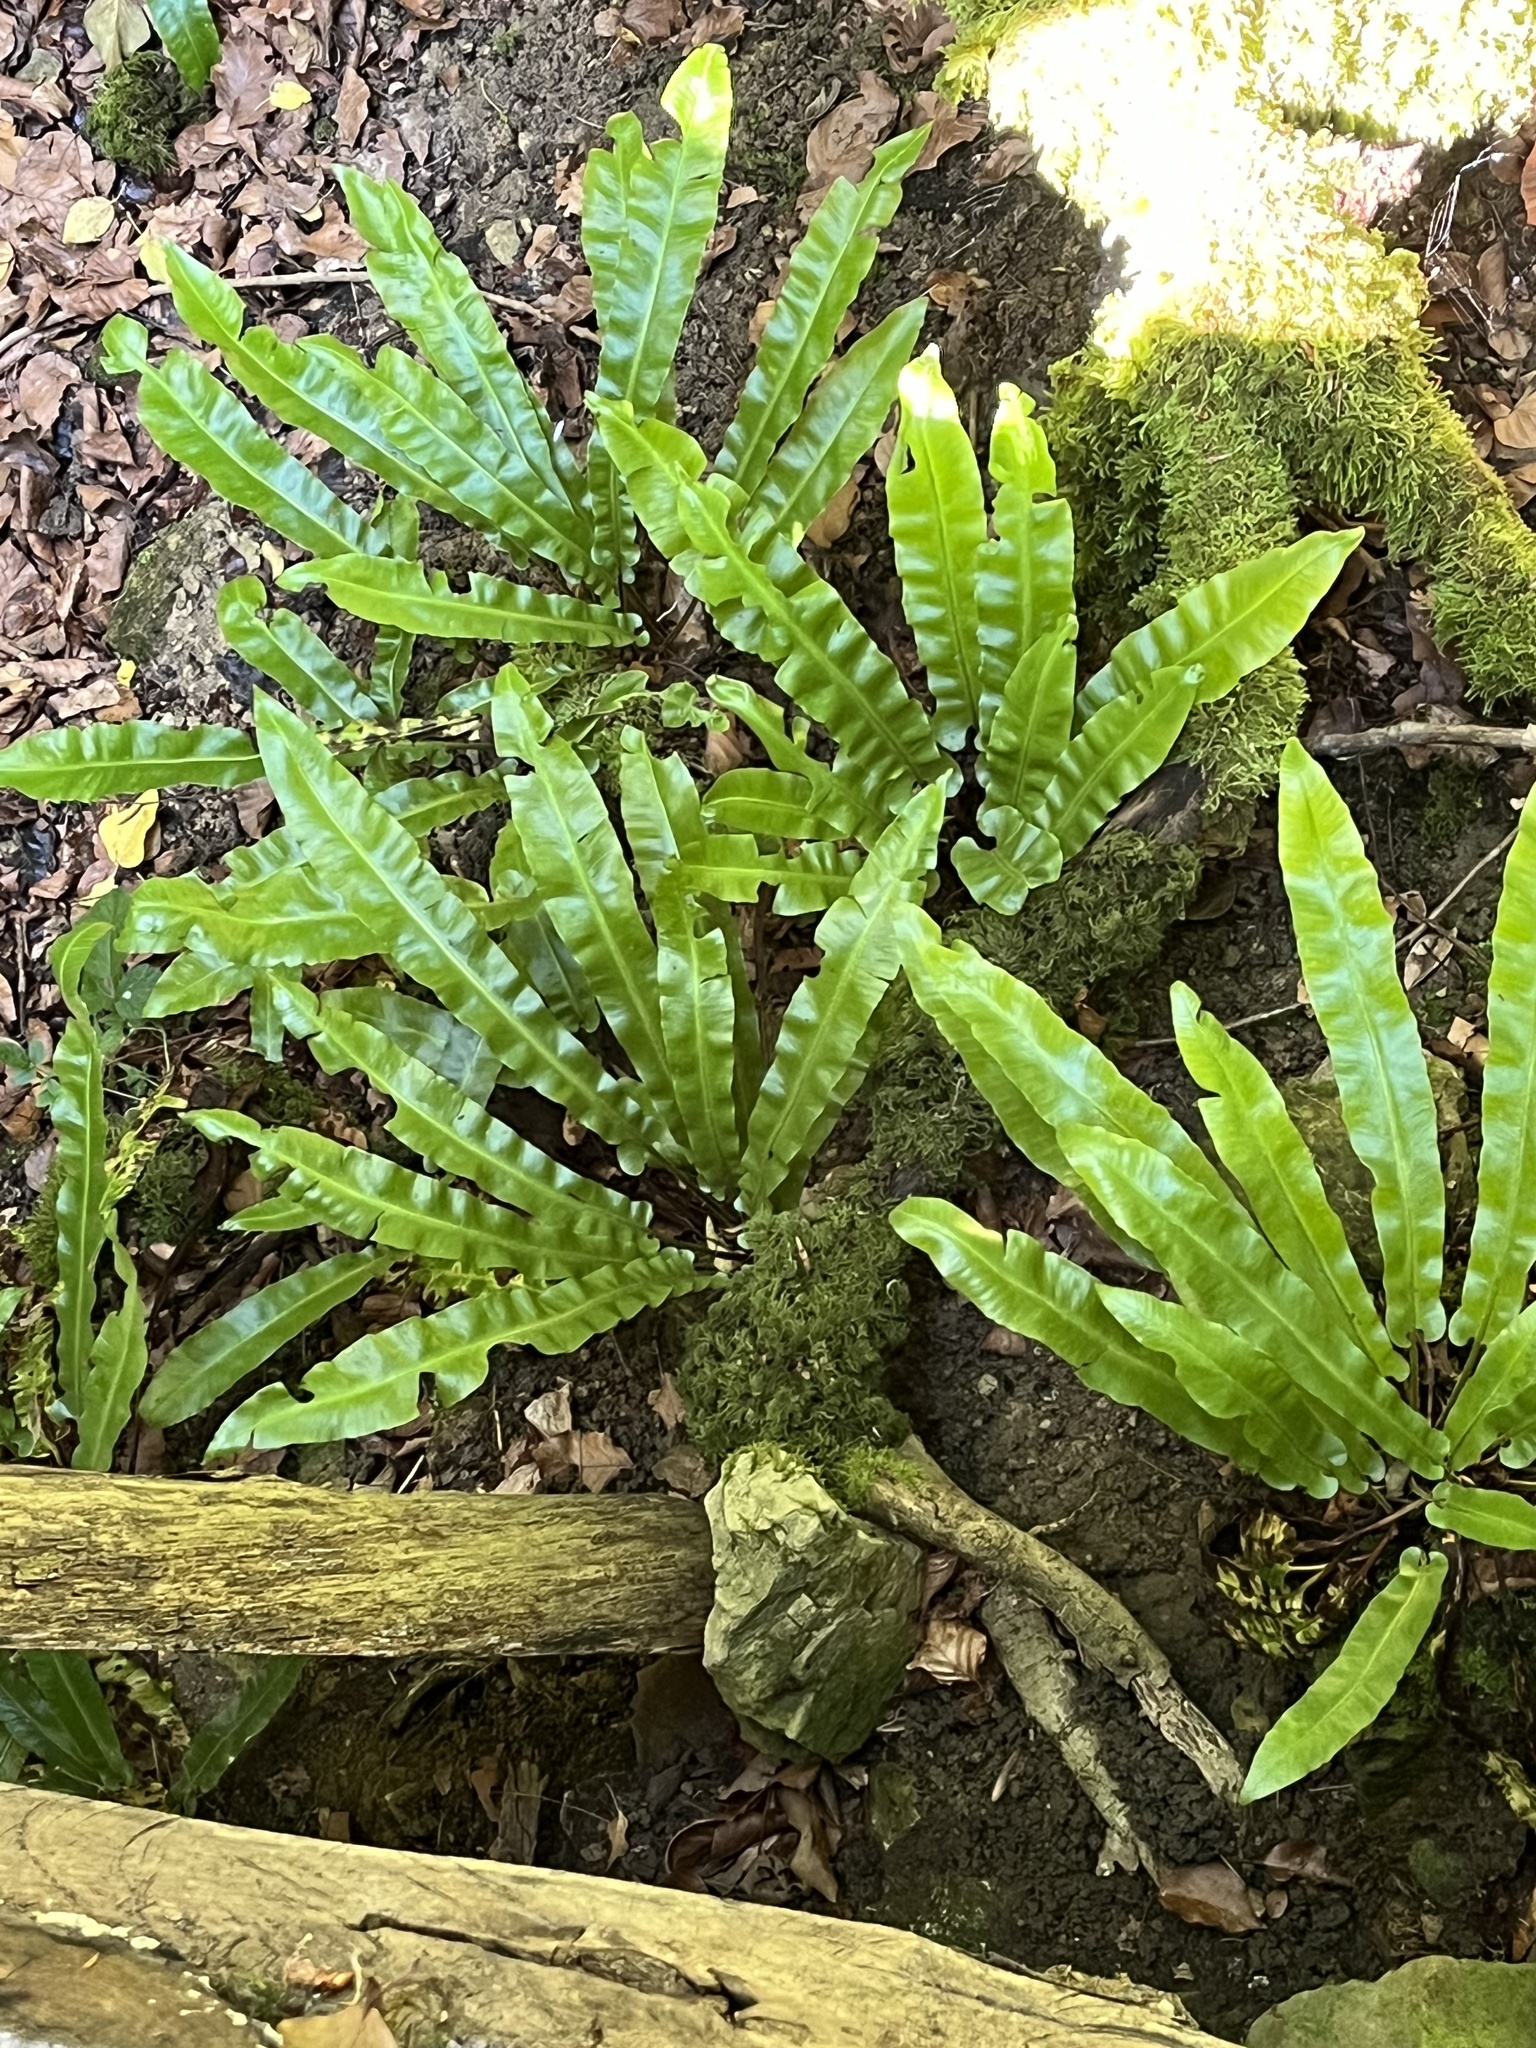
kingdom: Plantae
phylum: Tracheophyta
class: Polypodiopsida
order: Polypodiales
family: Aspleniaceae
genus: Asplenium
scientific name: Asplenium scolopendrium
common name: Hart's-tongue fern
